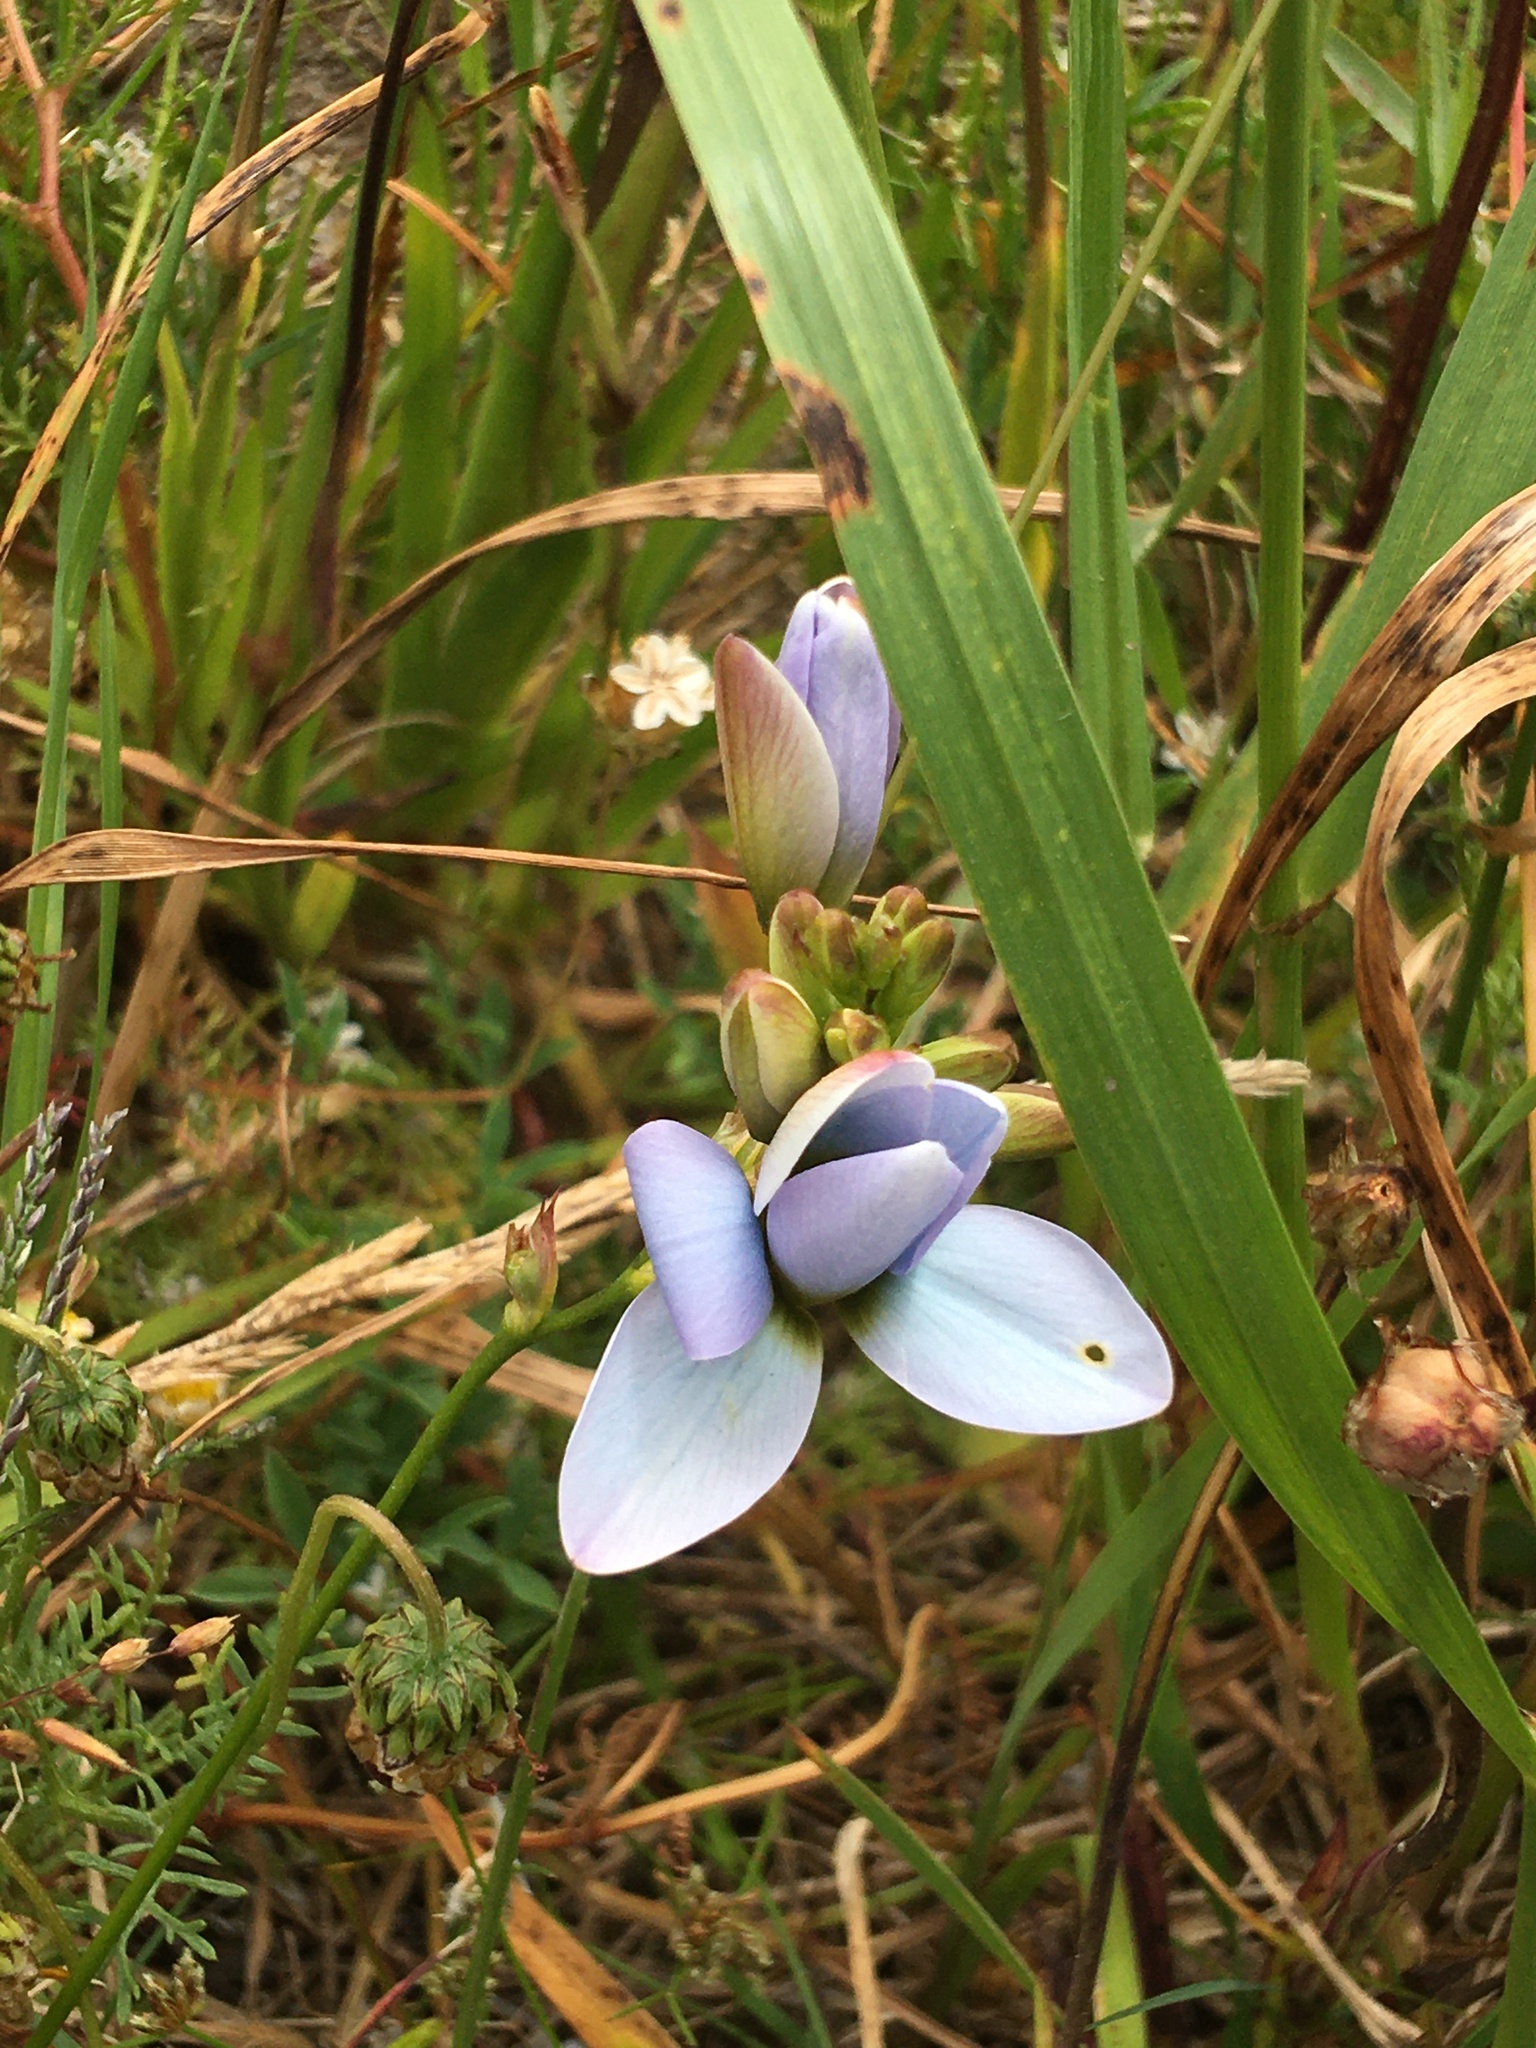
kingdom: Plantae
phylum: Tracheophyta
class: Liliopsida
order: Asparagales
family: Iridaceae
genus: Ixia
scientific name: Ixia monadelpha
